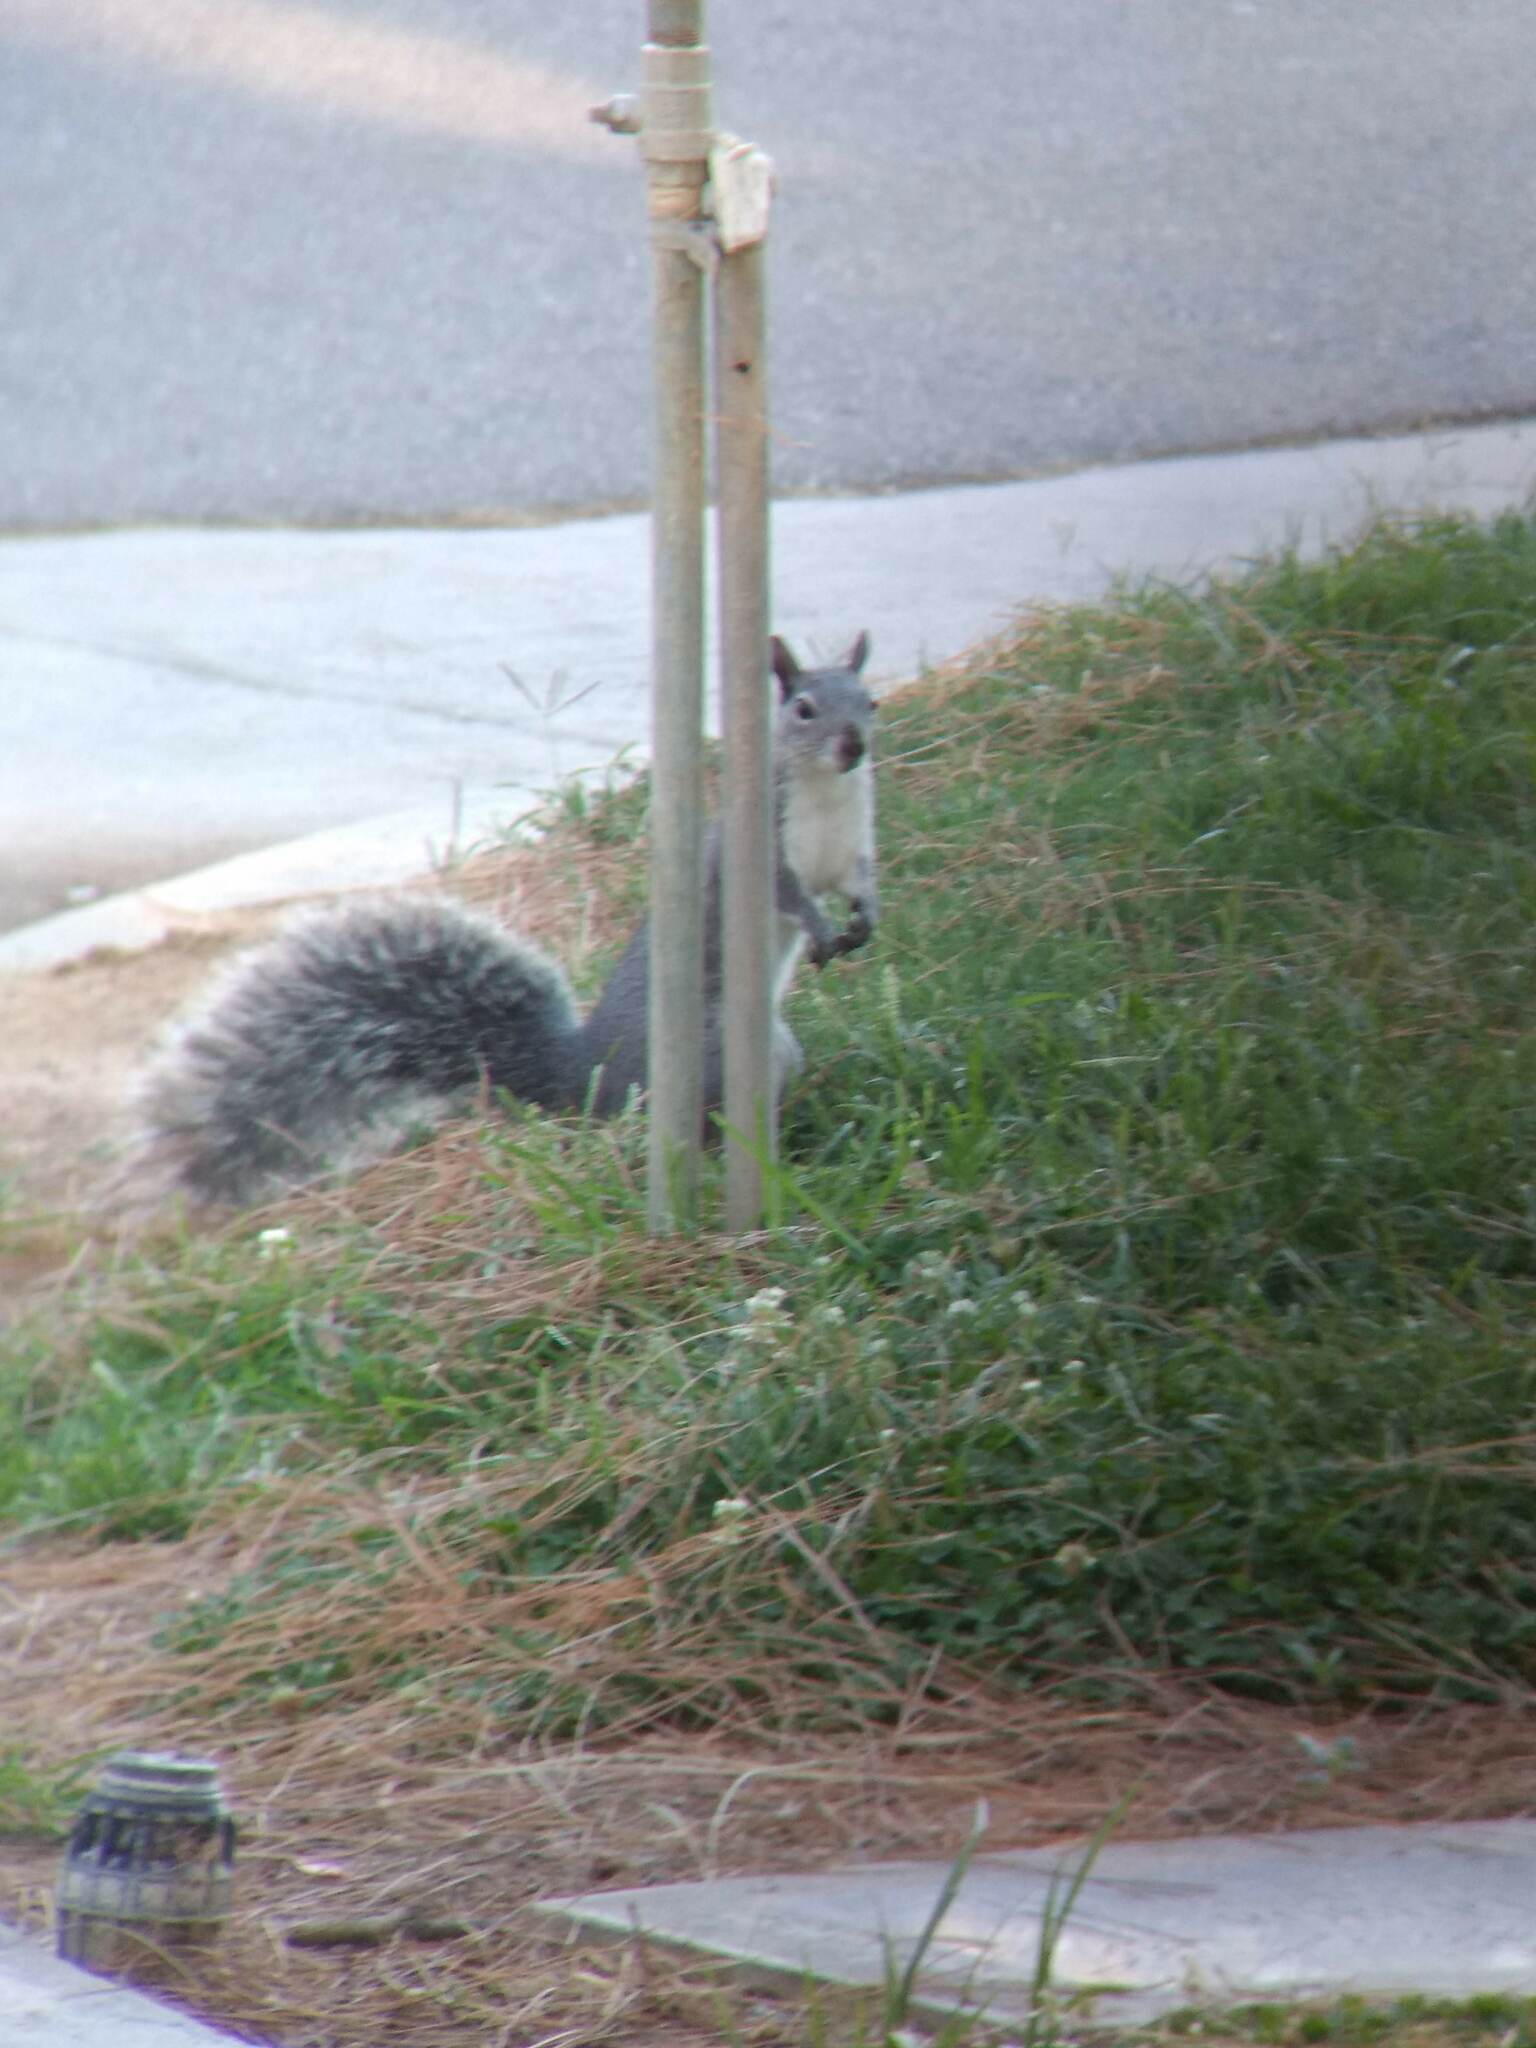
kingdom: Animalia
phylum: Chordata
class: Mammalia
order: Rodentia
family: Sciuridae
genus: Sciurus
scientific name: Sciurus griseus
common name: Western gray squirrel
